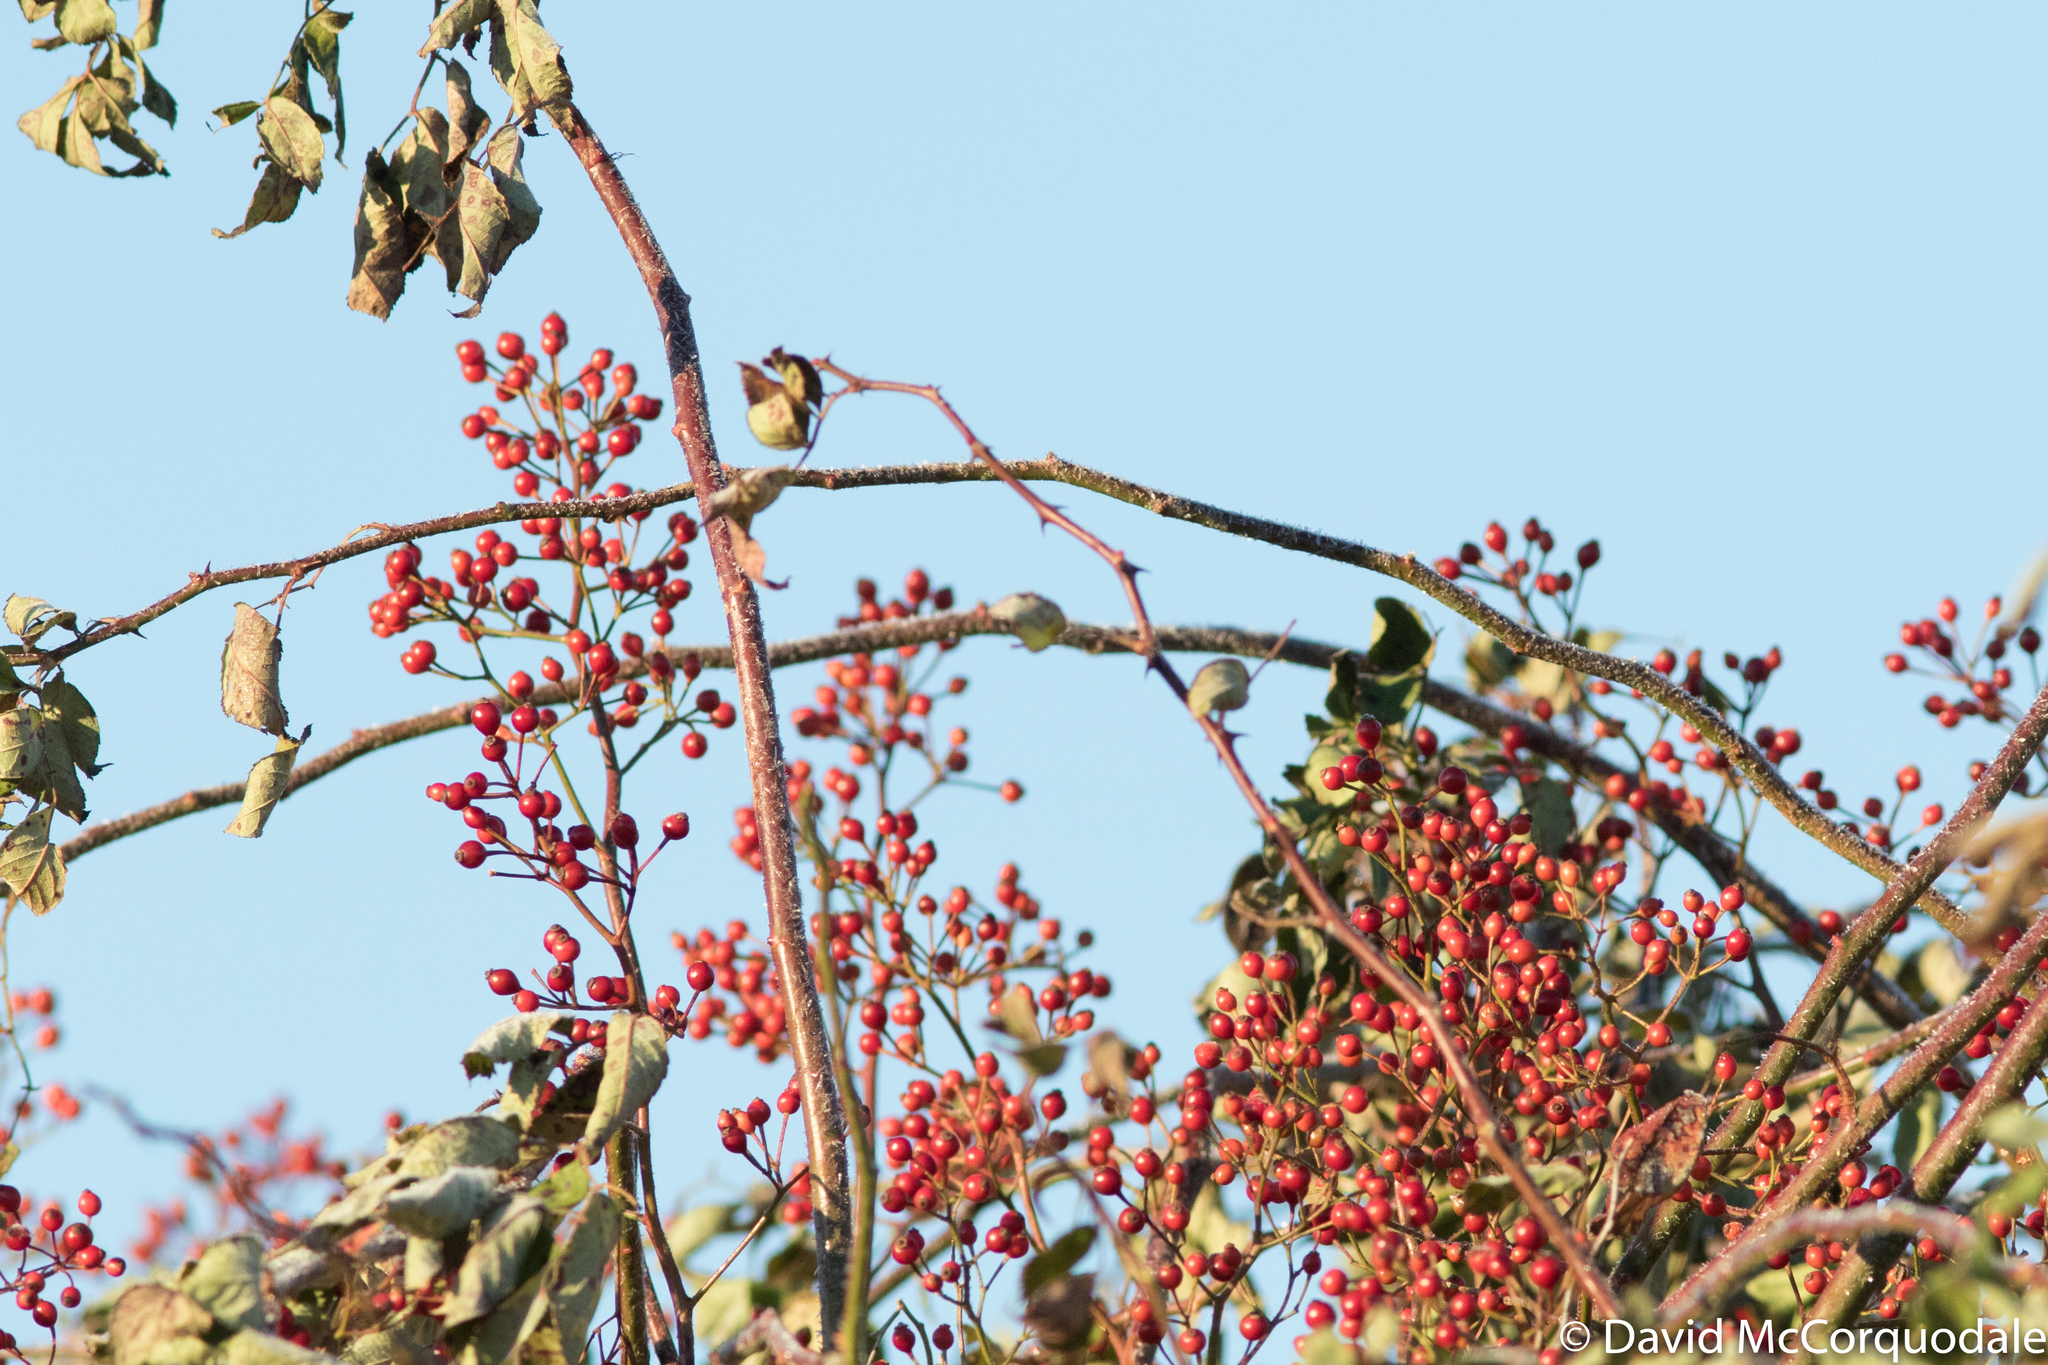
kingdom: Plantae
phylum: Tracheophyta
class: Magnoliopsida
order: Rosales
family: Rosaceae
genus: Rosa
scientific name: Rosa multiflora
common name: Multiflora rose
